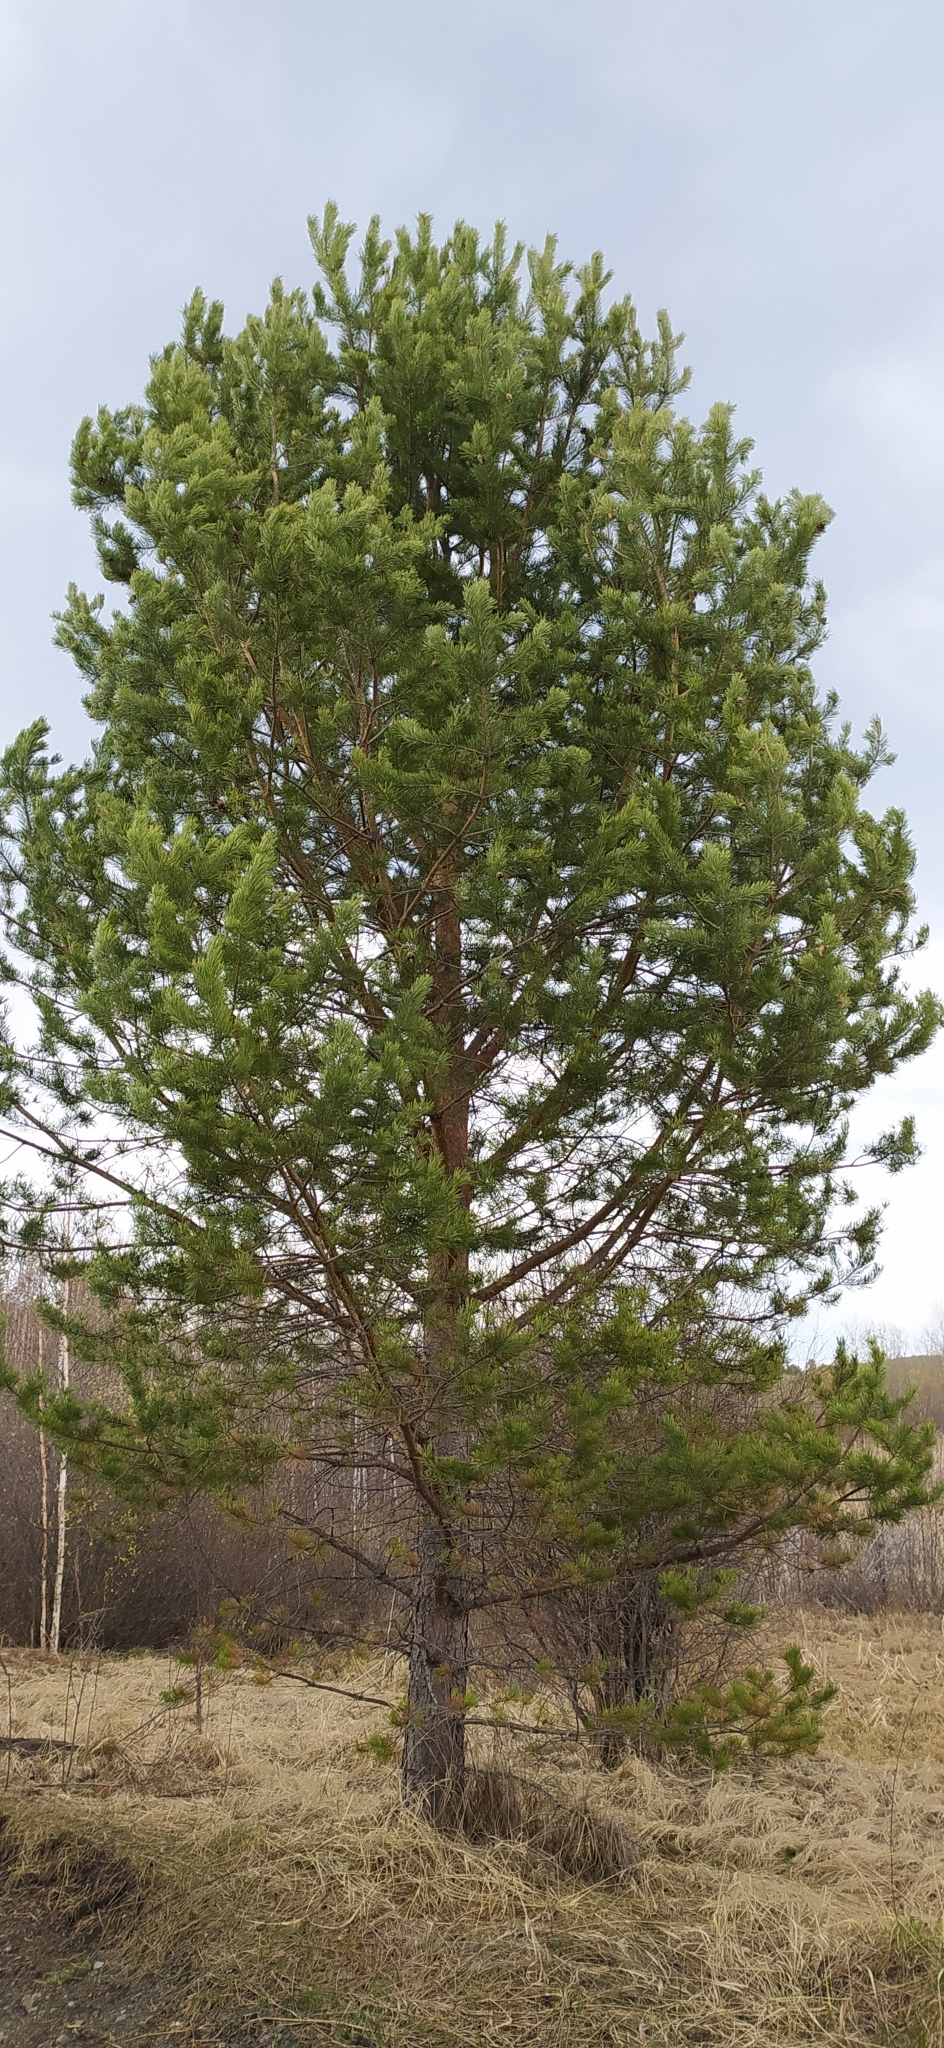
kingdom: Plantae
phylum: Tracheophyta
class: Pinopsida
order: Pinales
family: Pinaceae
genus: Pinus
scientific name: Pinus sylvestris
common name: Scots pine
